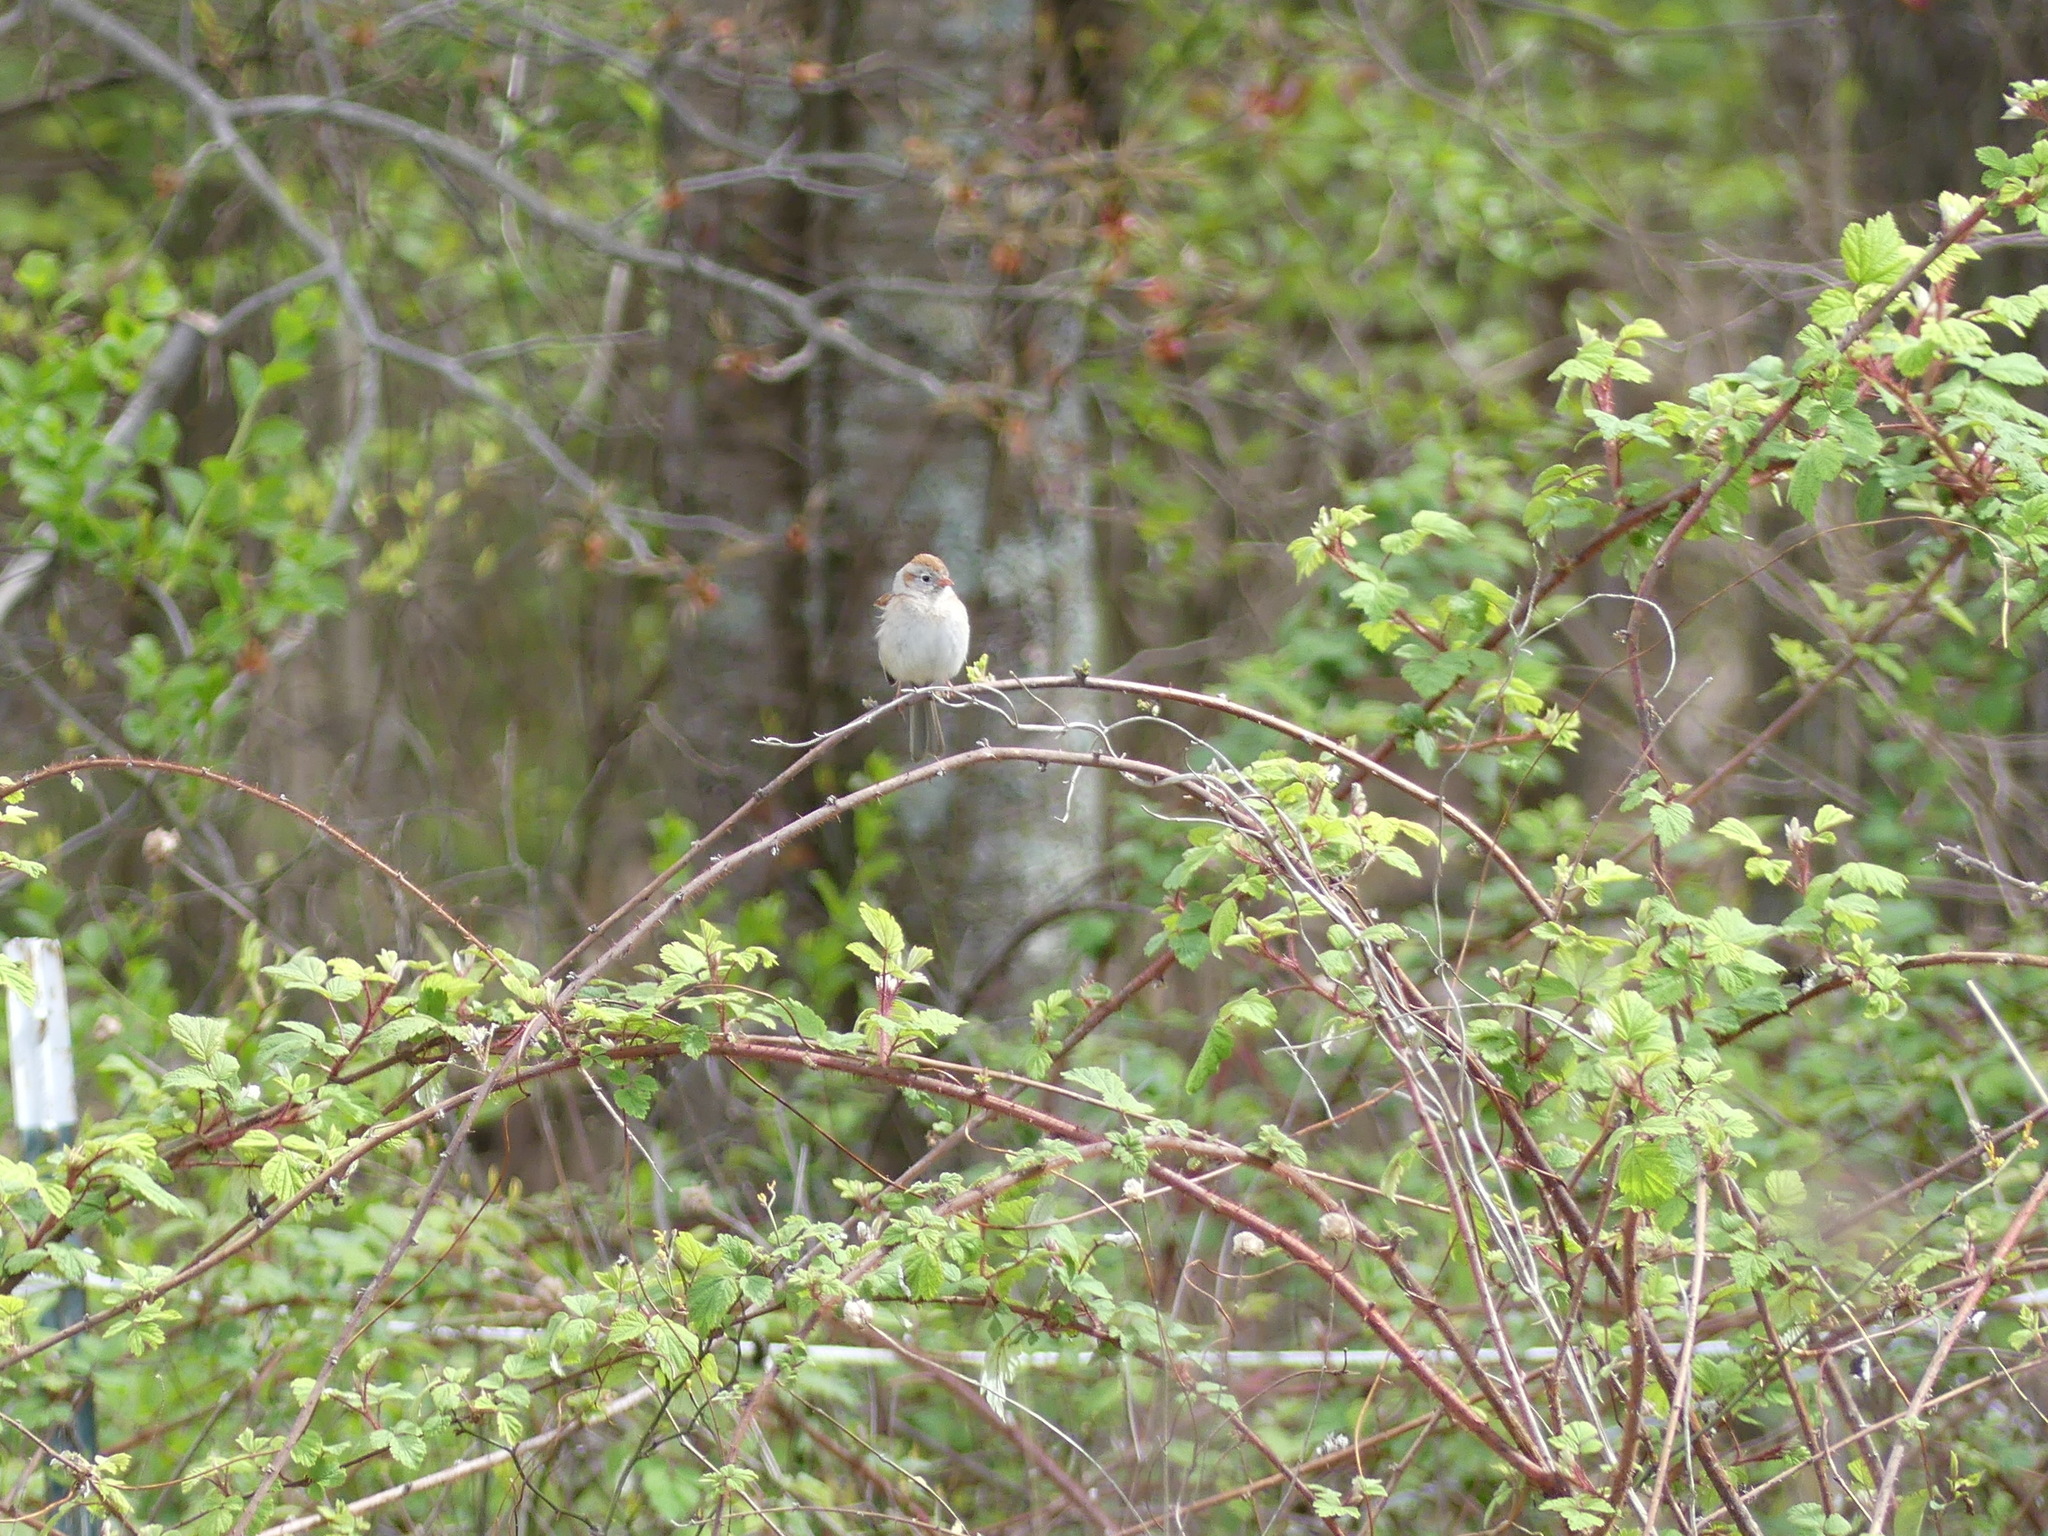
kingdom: Animalia
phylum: Chordata
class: Aves
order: Passeriformes
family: Passerellidae
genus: Spizella
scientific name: Spizella pusilla
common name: Field sparrow
